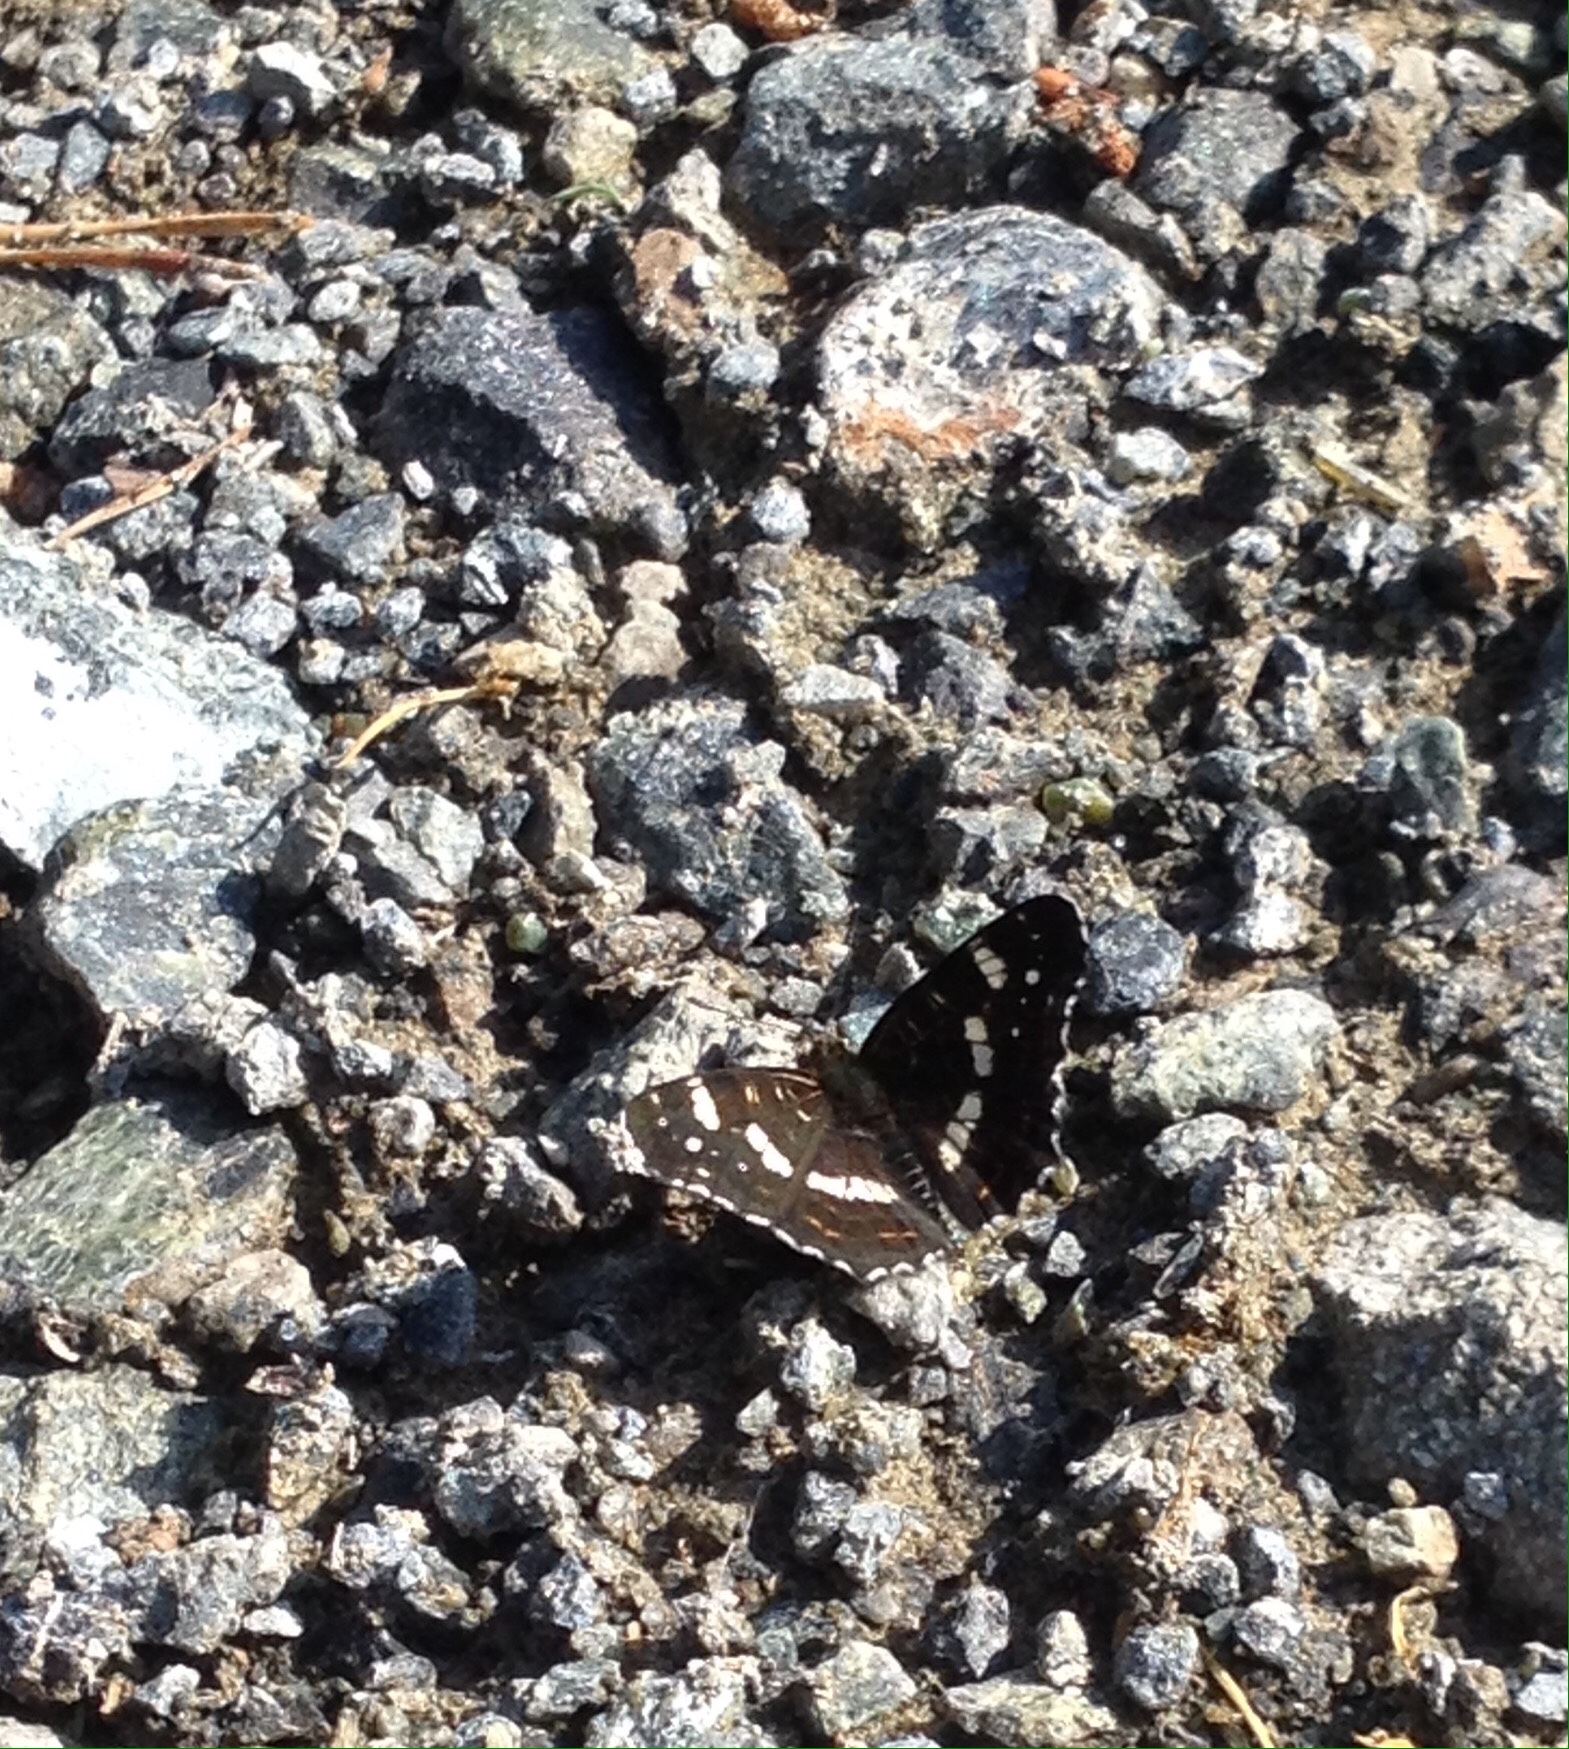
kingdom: Animalia
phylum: Arthropoda
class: Insecta
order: Lepidoptera
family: Nymphalidae
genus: Araschnia
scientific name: Araschnia levana
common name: Map butterfly
